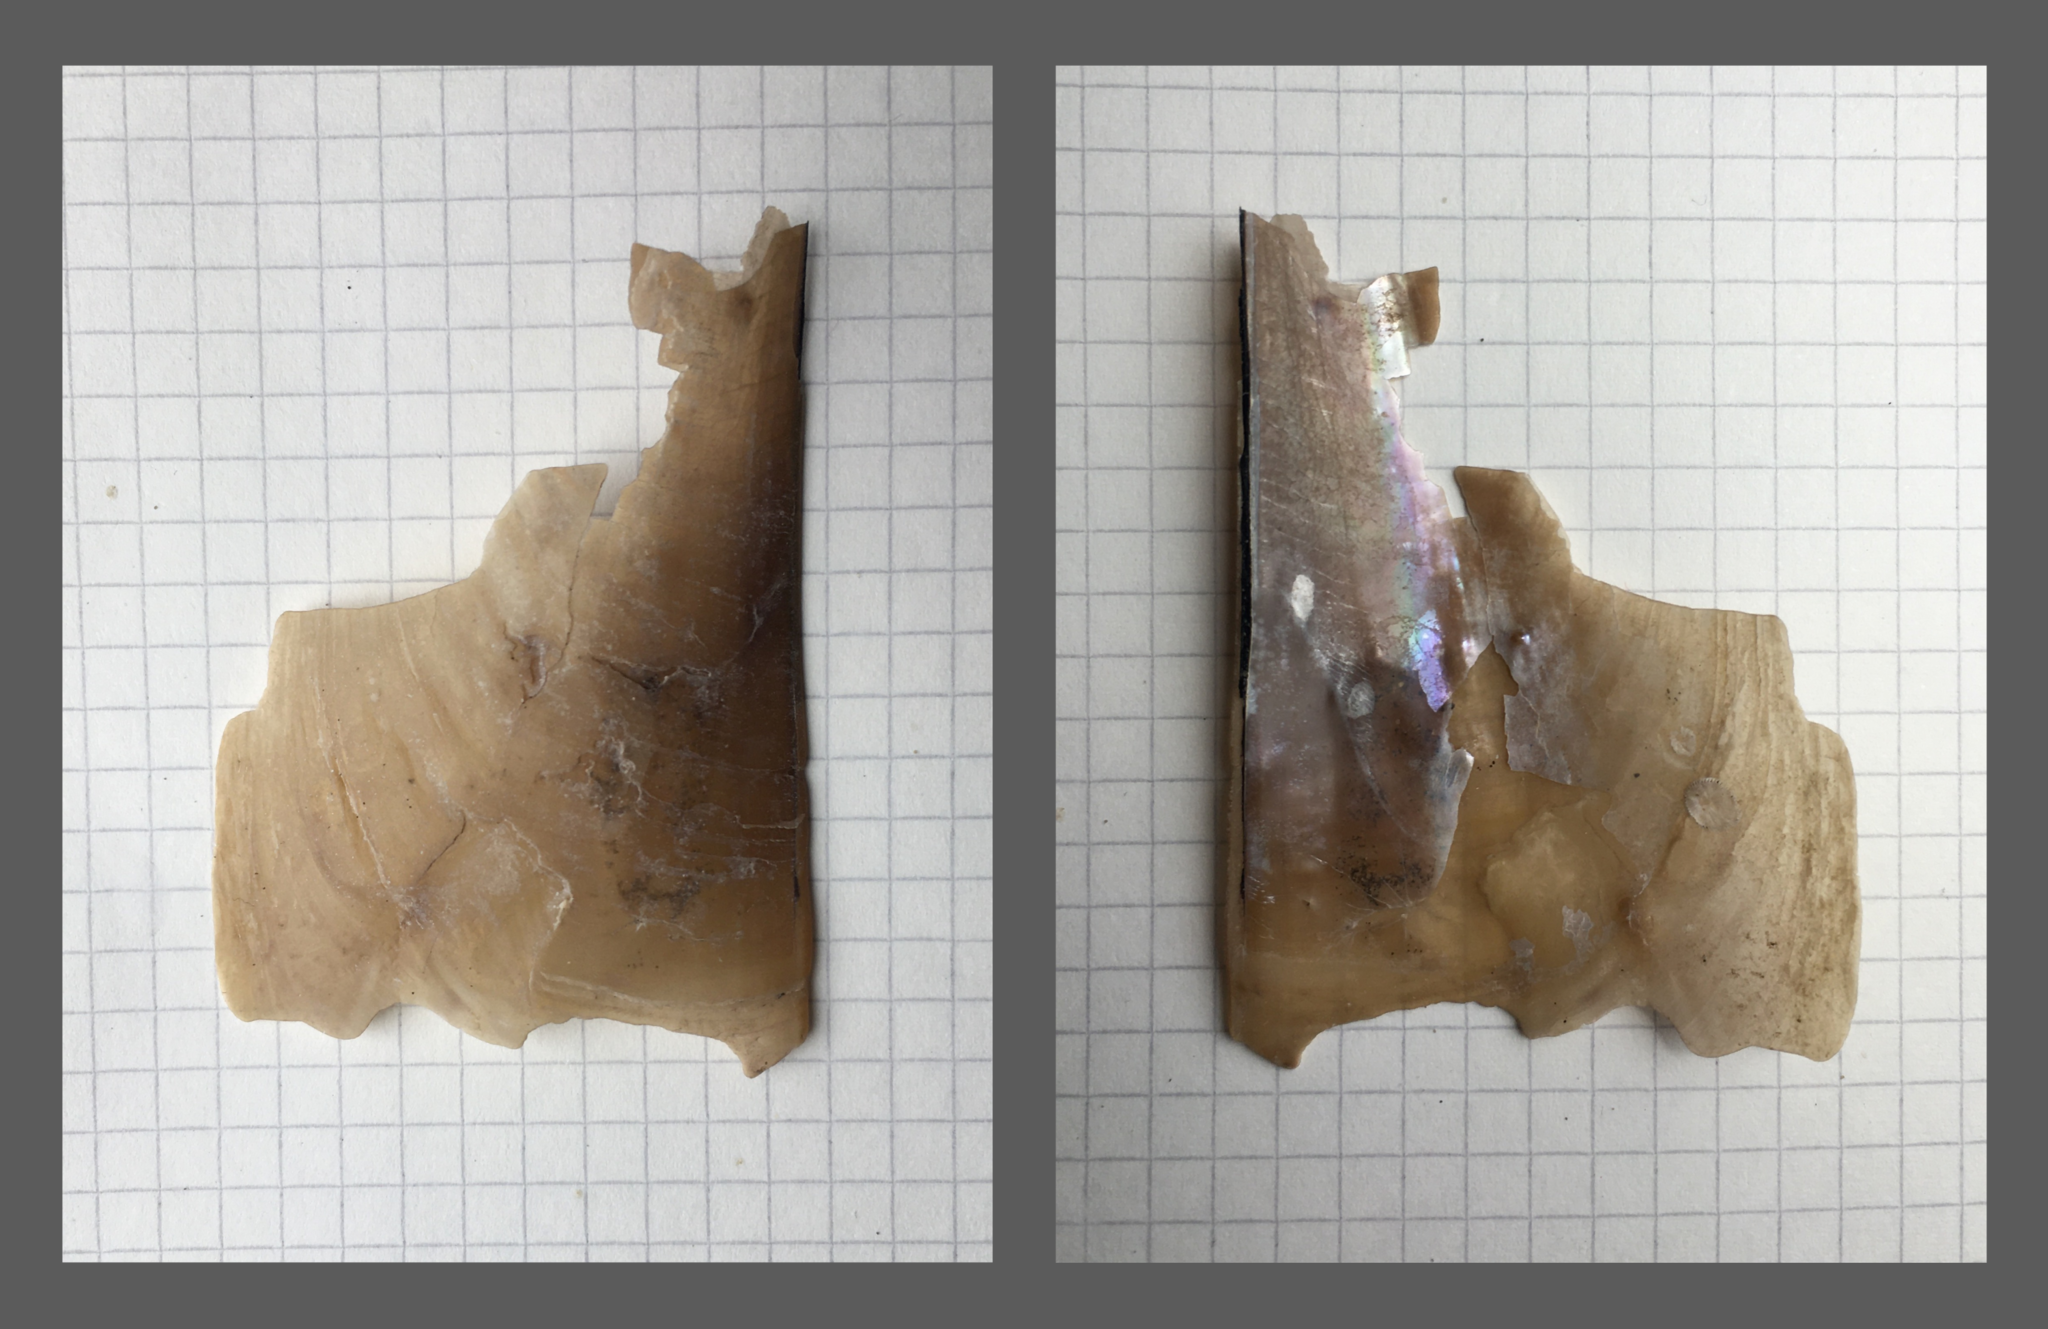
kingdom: Animalia
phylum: Mollusca
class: Bivalvia
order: Ostreida
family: Pinnidae
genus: Atrina
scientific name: Atrina seminuda
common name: Half-naked penshell
